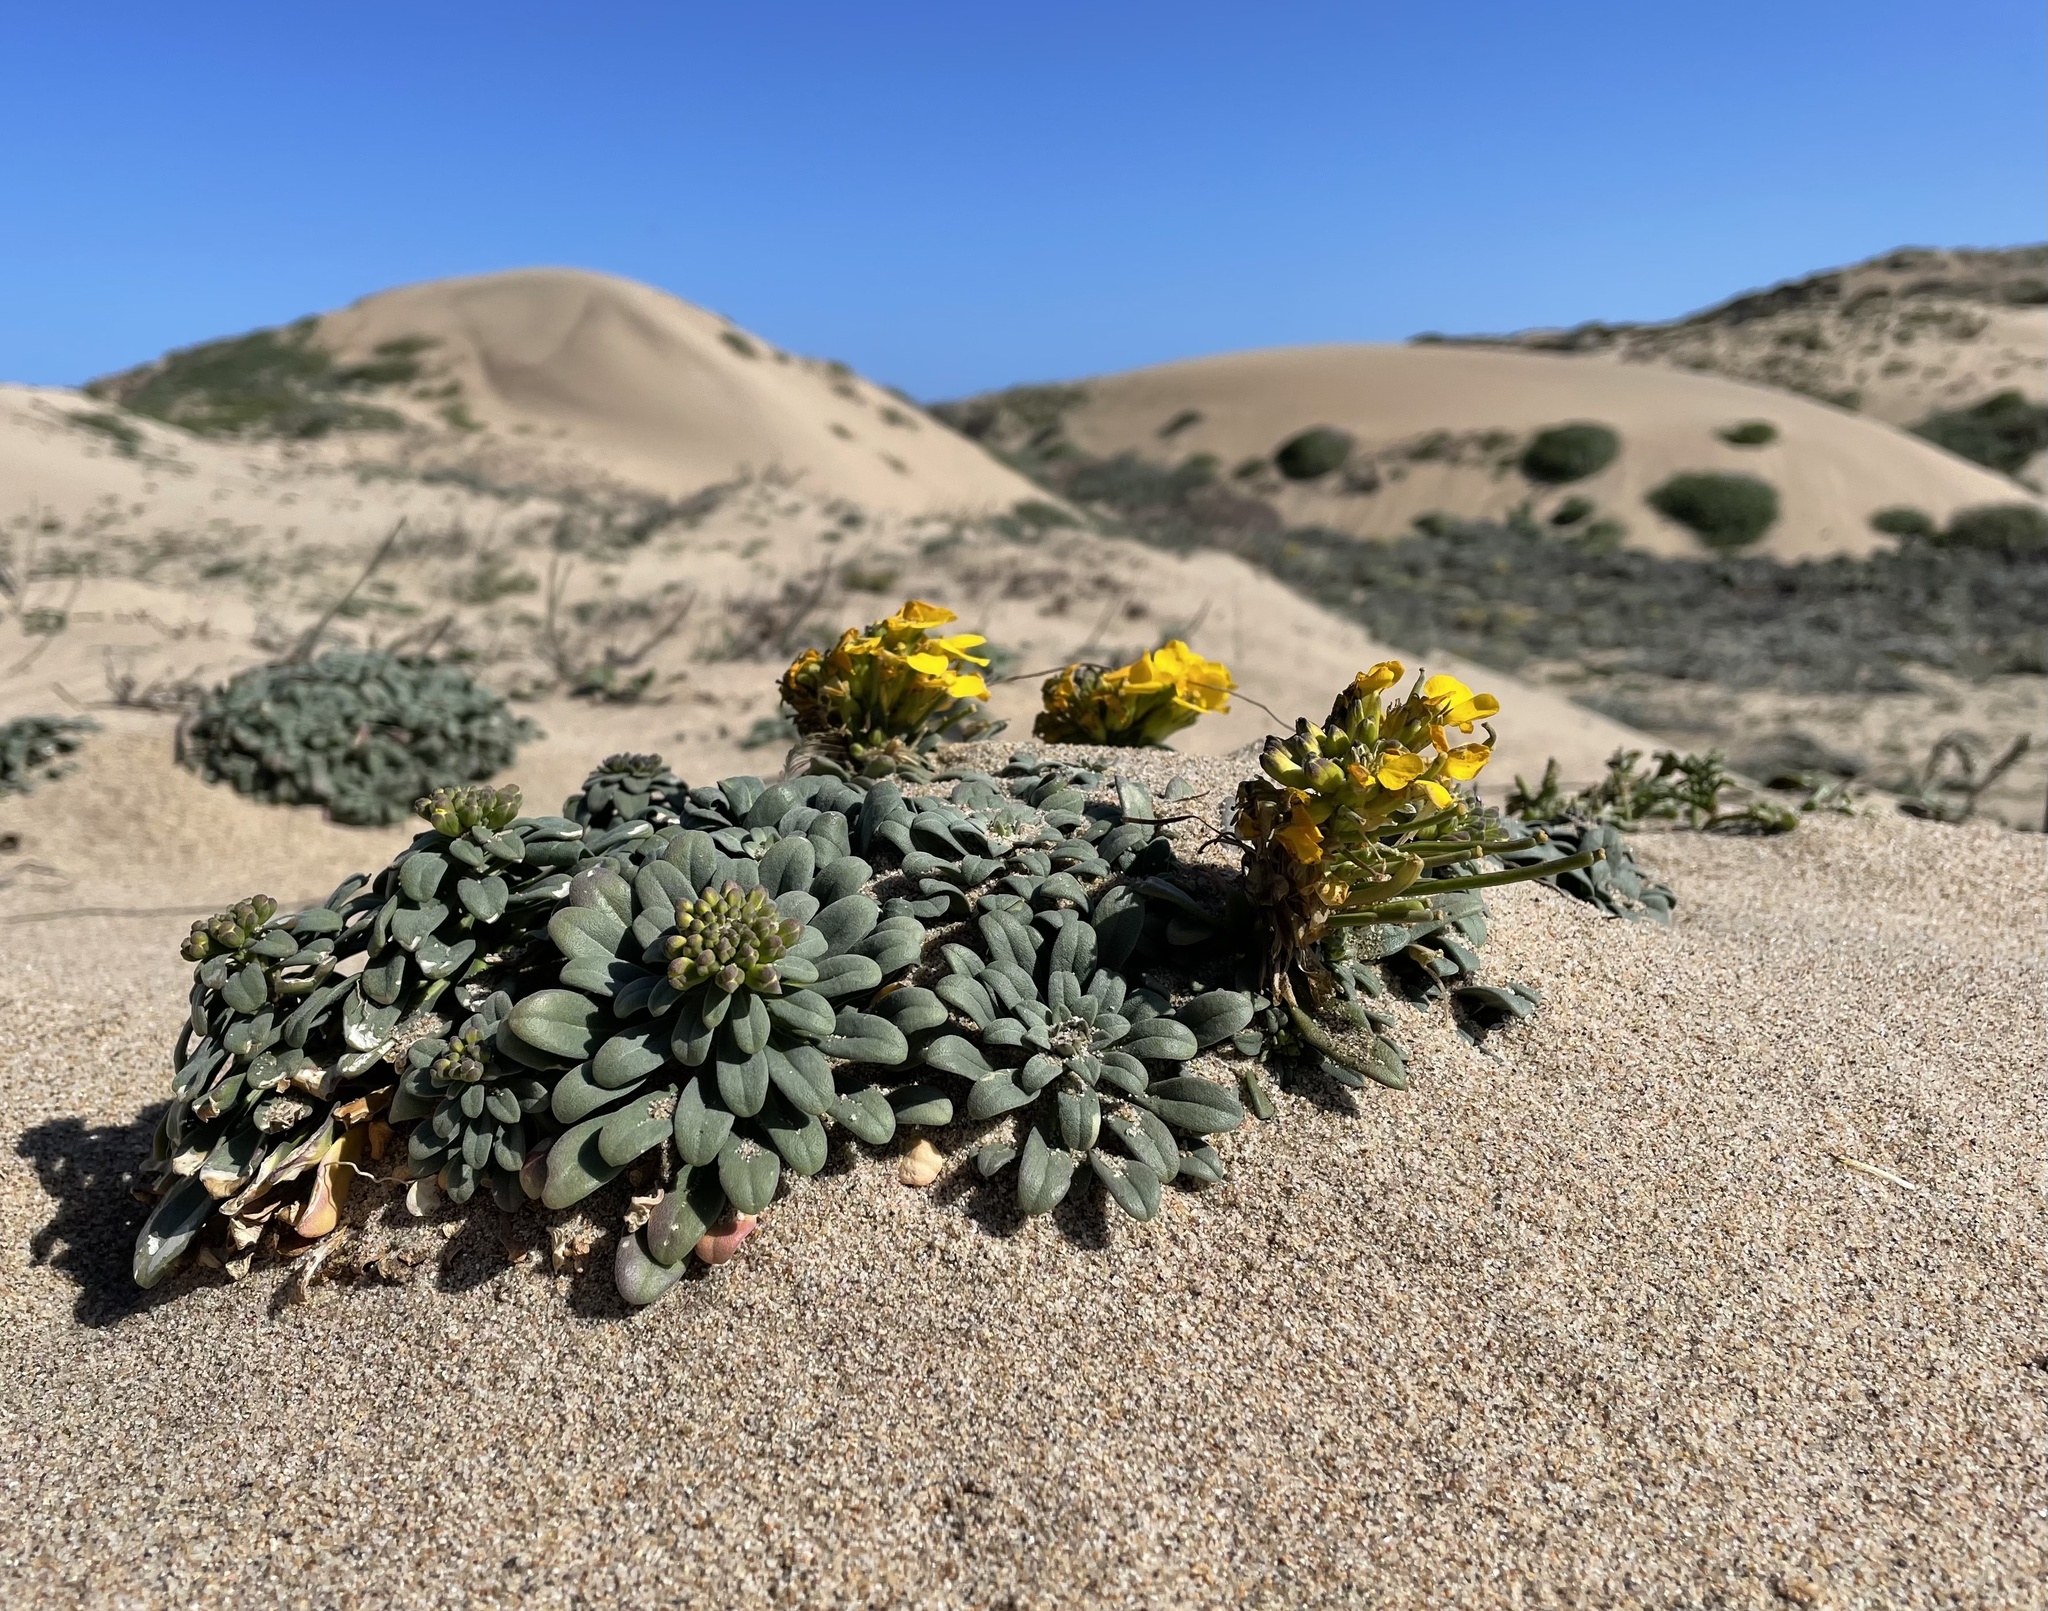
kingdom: Plantae
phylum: Tracheophyta
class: Magnoliopsida
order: Brassicales
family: Brassicaceae
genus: Erysimum
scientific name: Erysimum menziesii
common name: Menzies's wallflower
